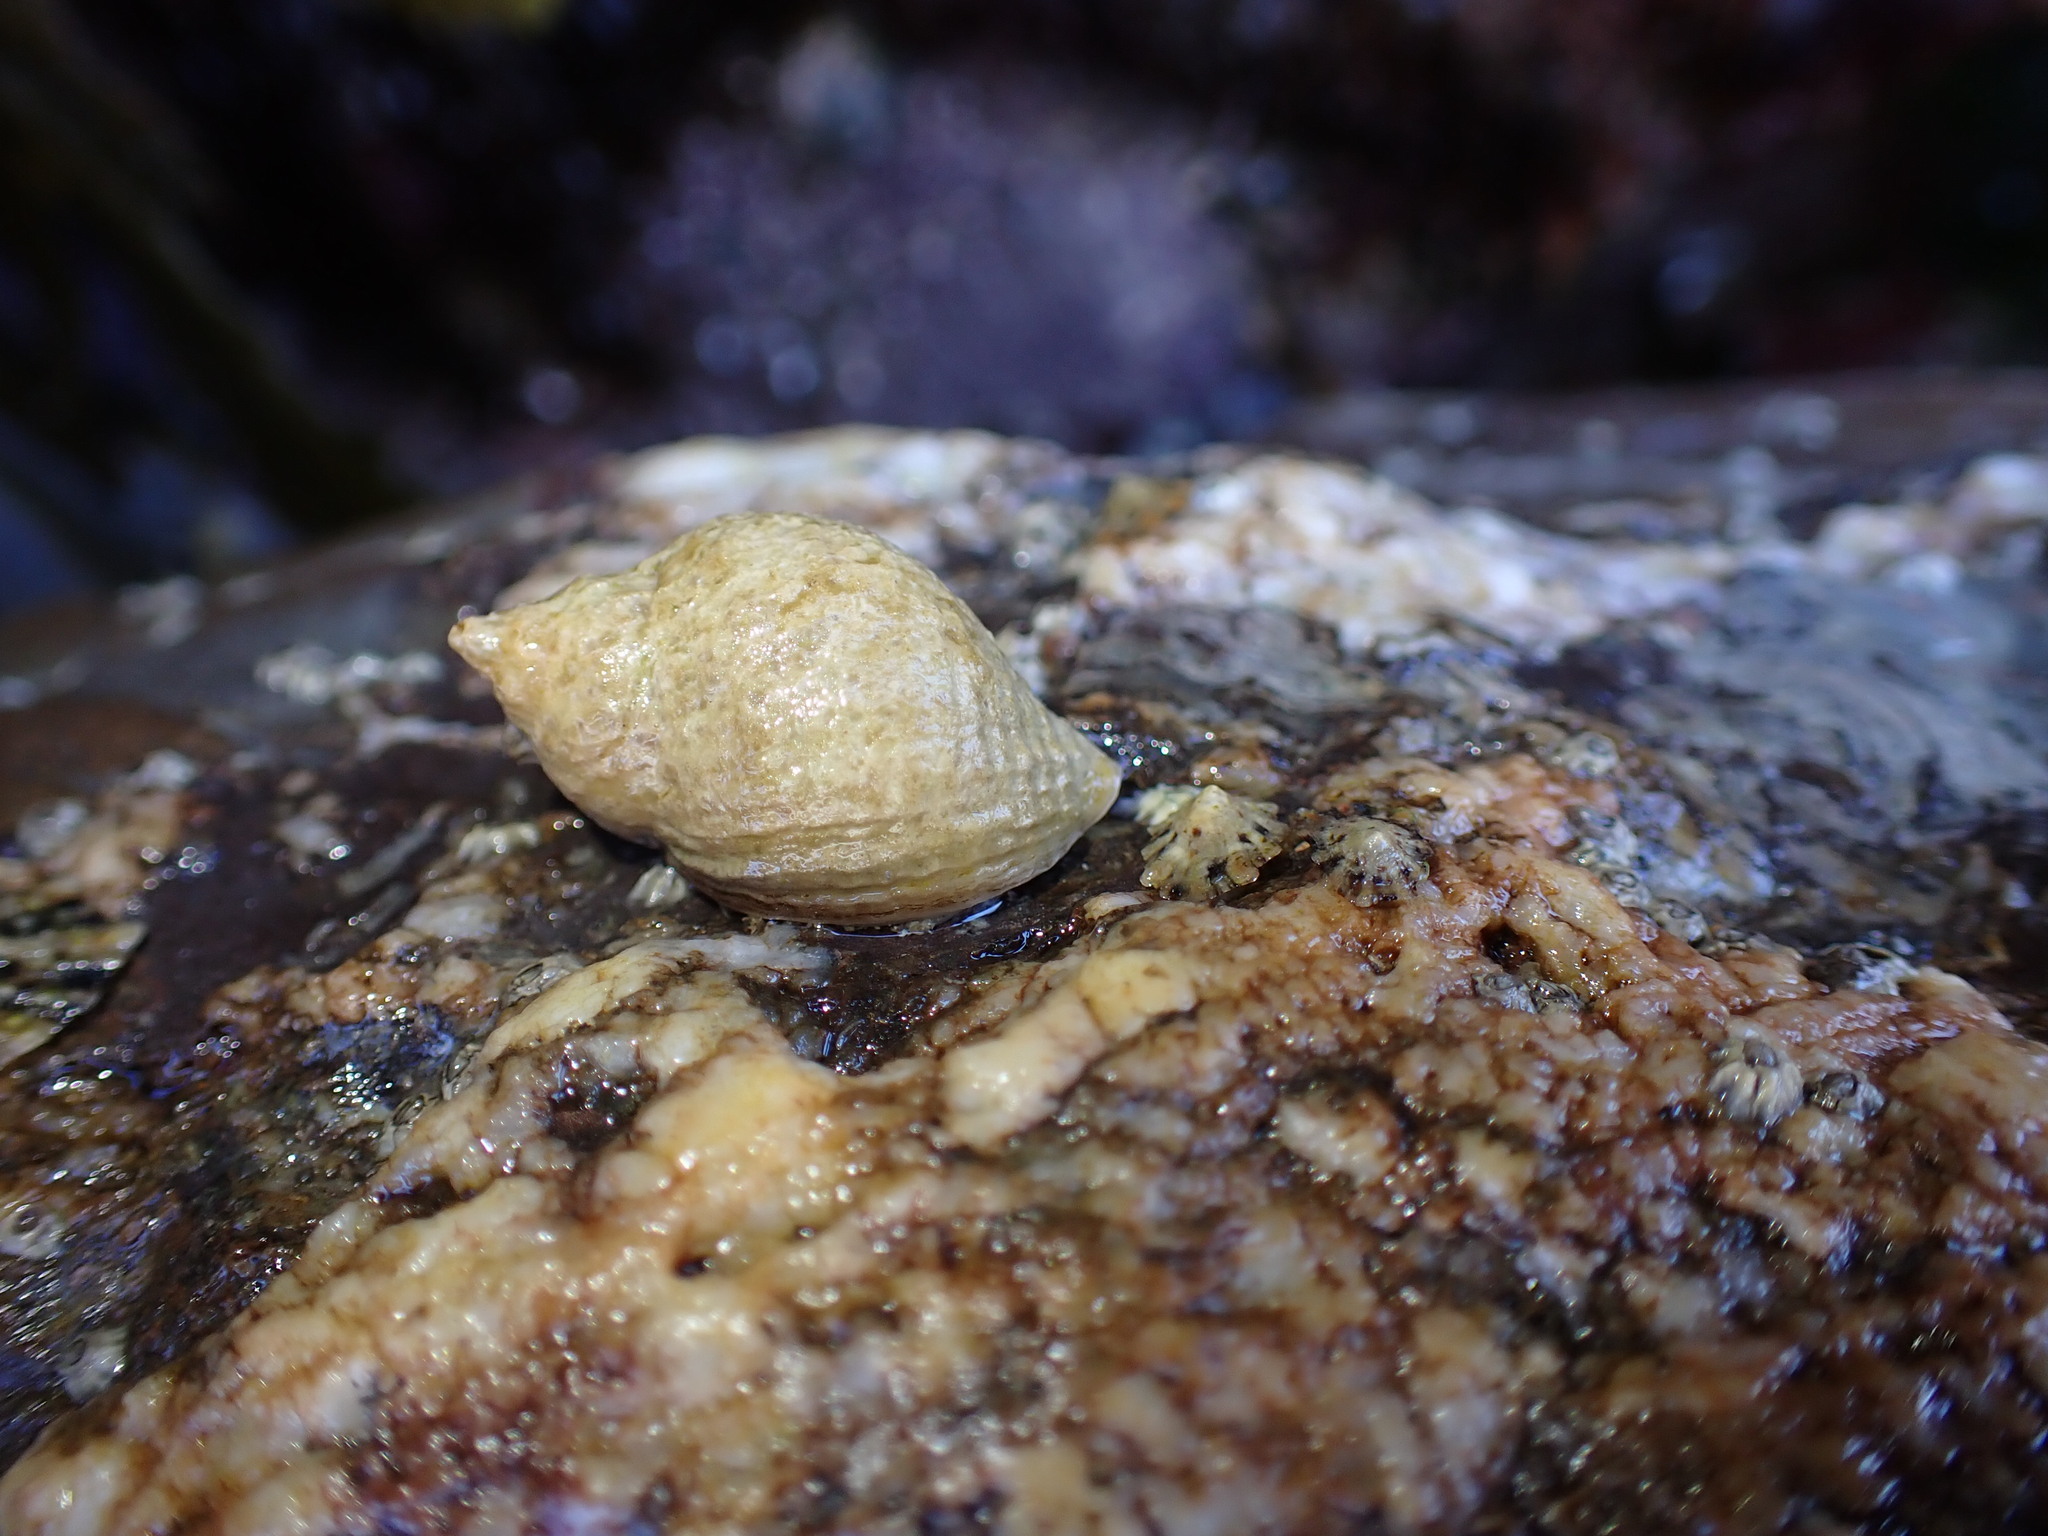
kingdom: Animalia
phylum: Mollusca
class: Gastropoda
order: Neogastropoda
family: Muricidae
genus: Nucella
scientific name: Nucella lapillus
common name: Dog whelk
